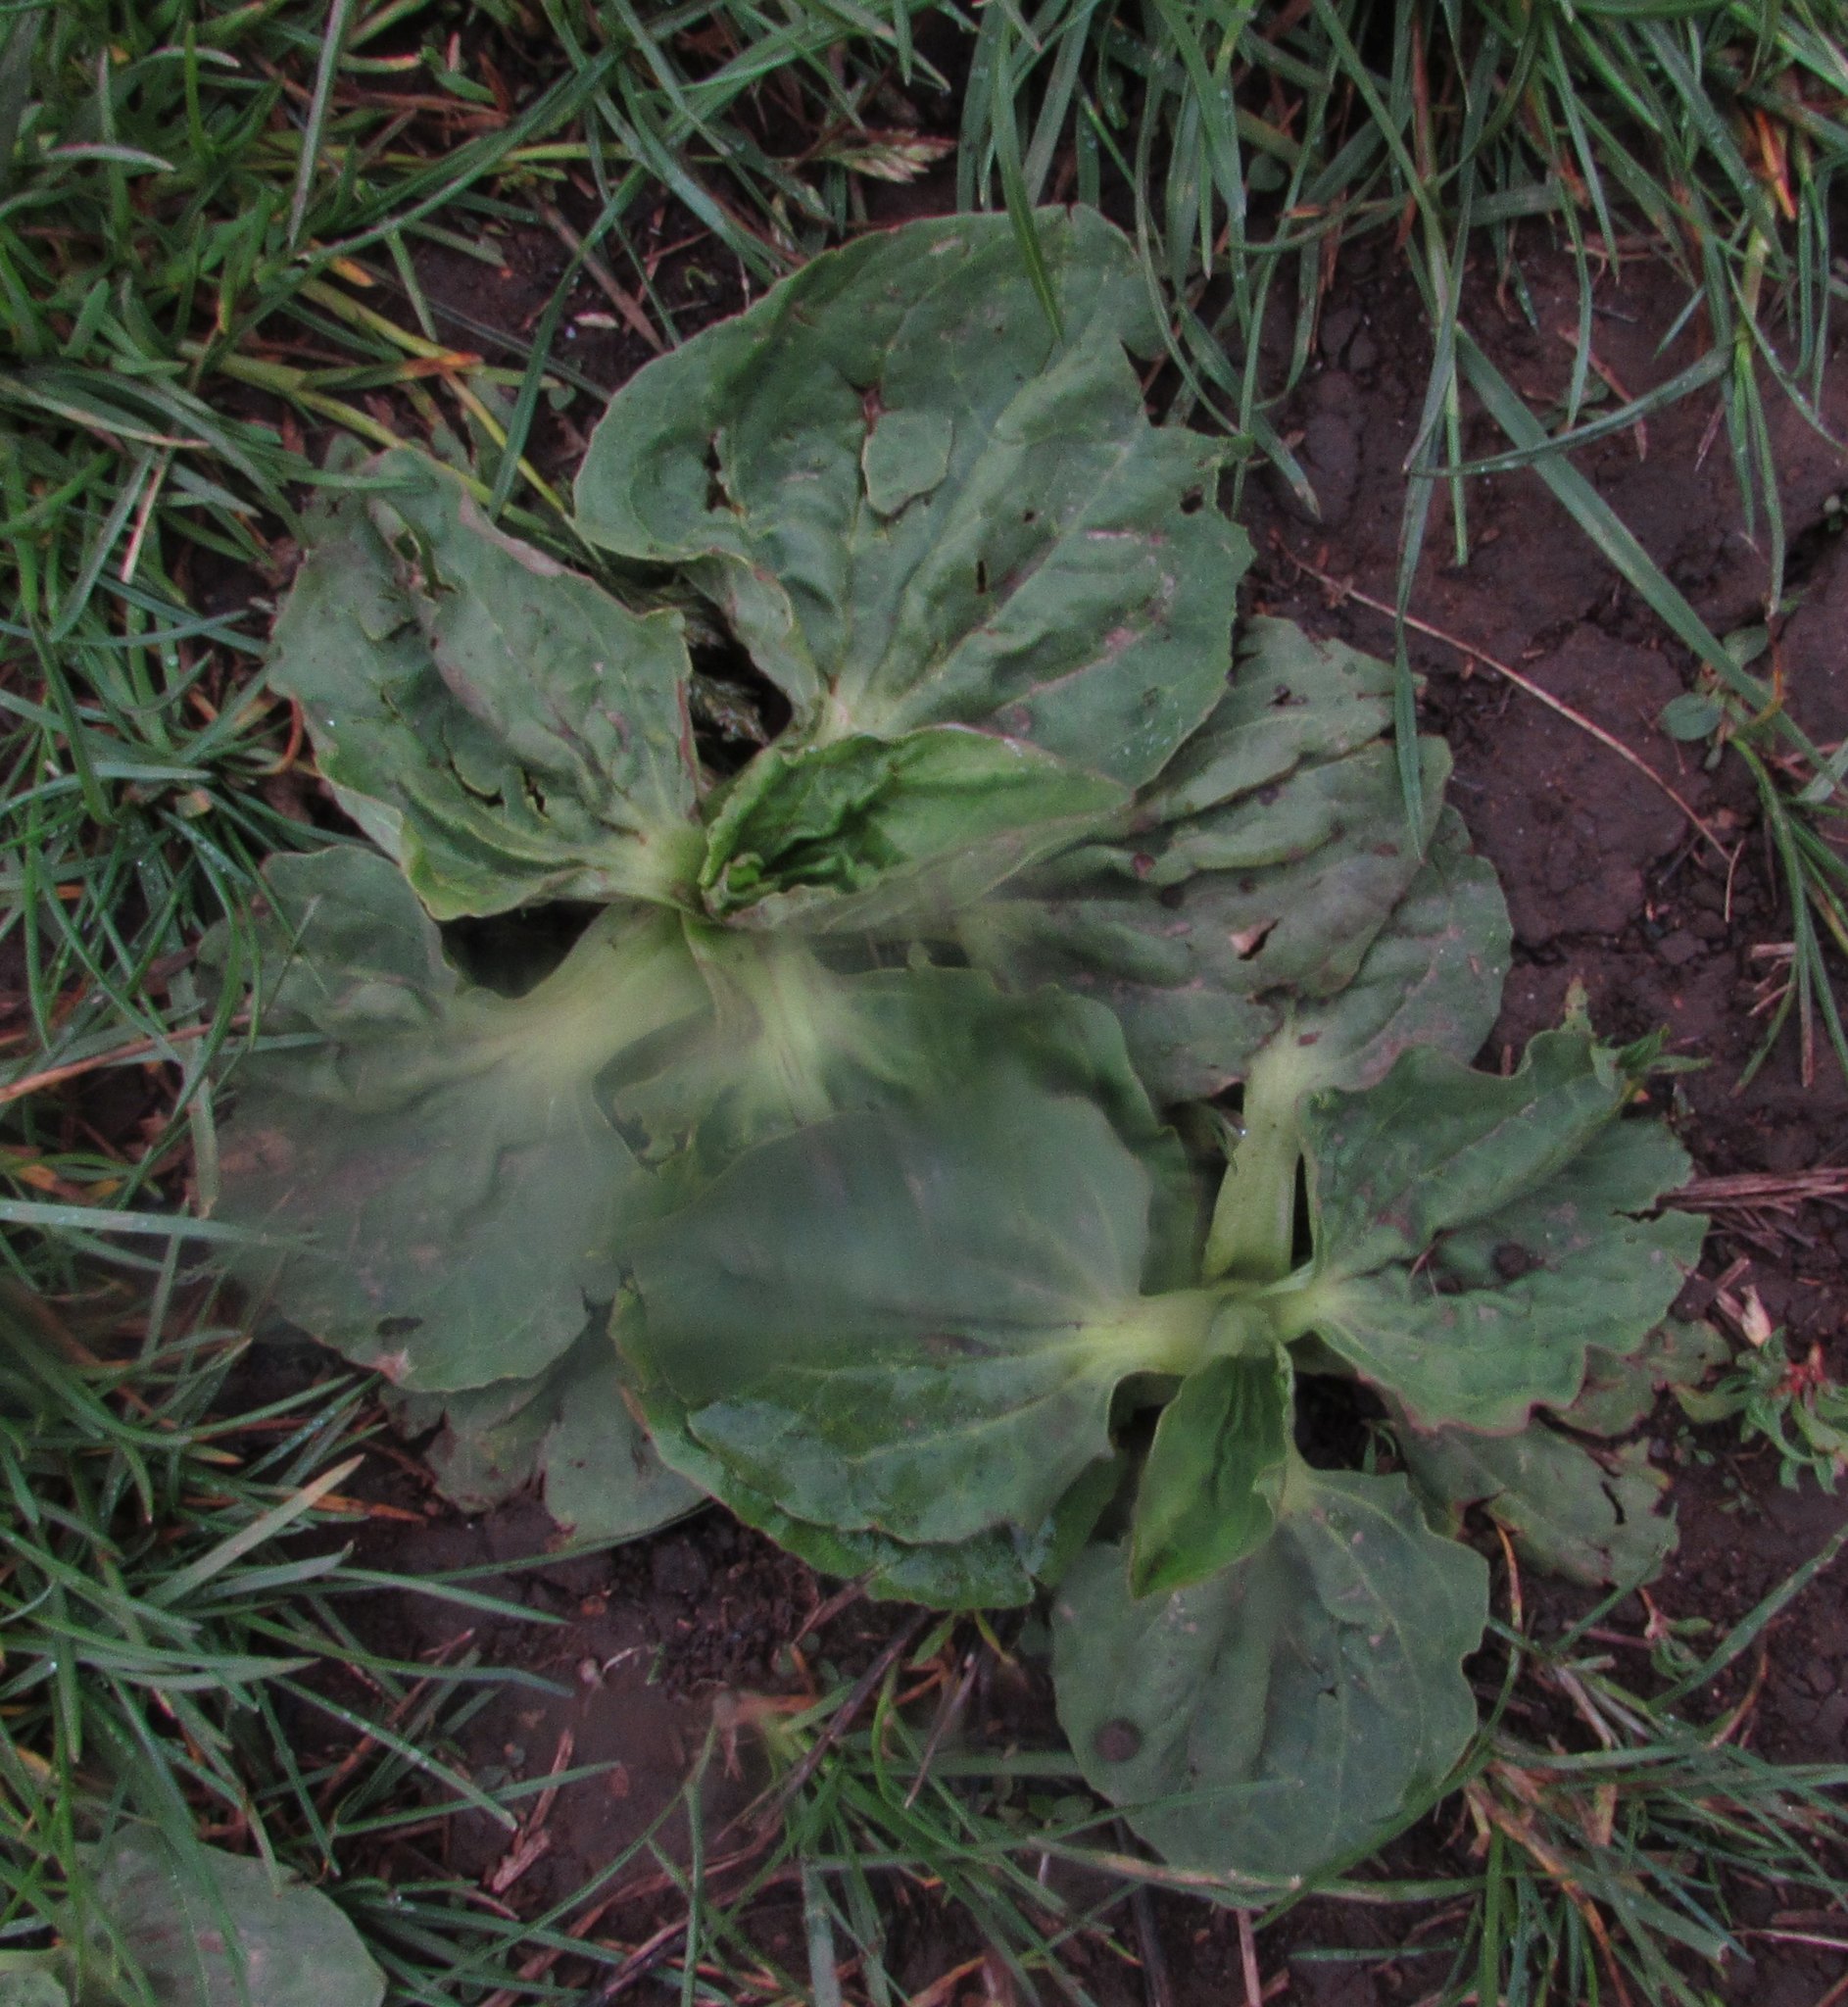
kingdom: Plantae
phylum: Tracheophyta
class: Magnoliopsida
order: Lamiales
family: Plantaginaceae
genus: Plantago
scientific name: Plantago major
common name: Common plantain
